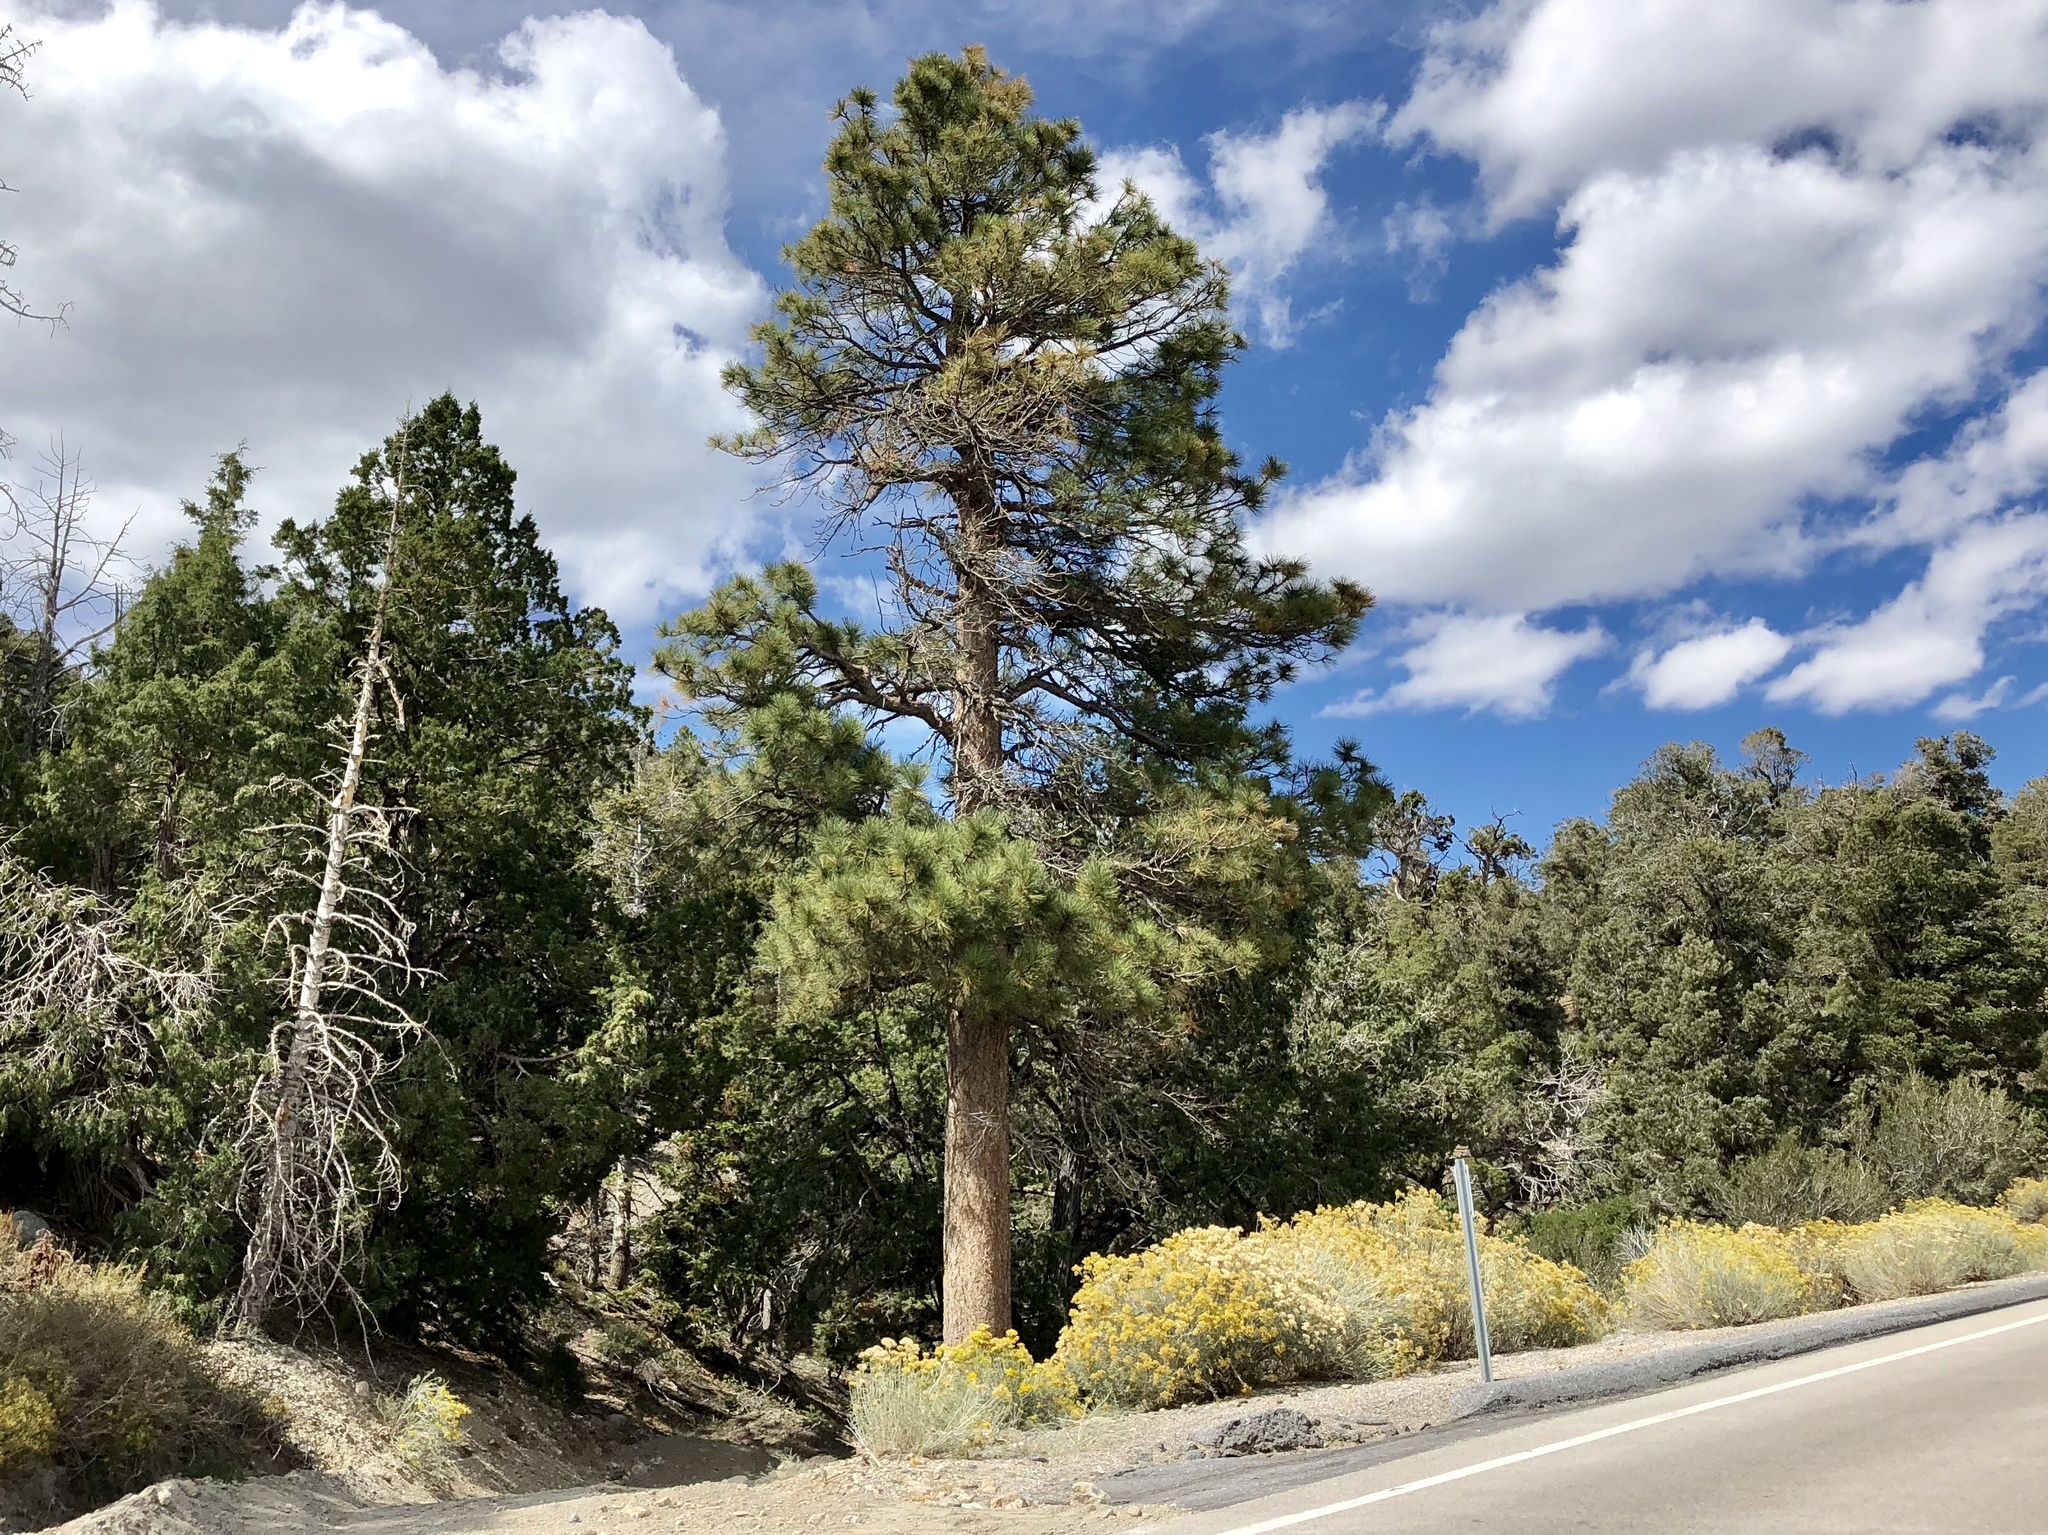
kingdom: Plantae
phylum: Tracheophyta
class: Pinopsida
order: Pinales
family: Pinaceae
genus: Pinus
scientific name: Pinus ponderosa
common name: Western yellow-pine
